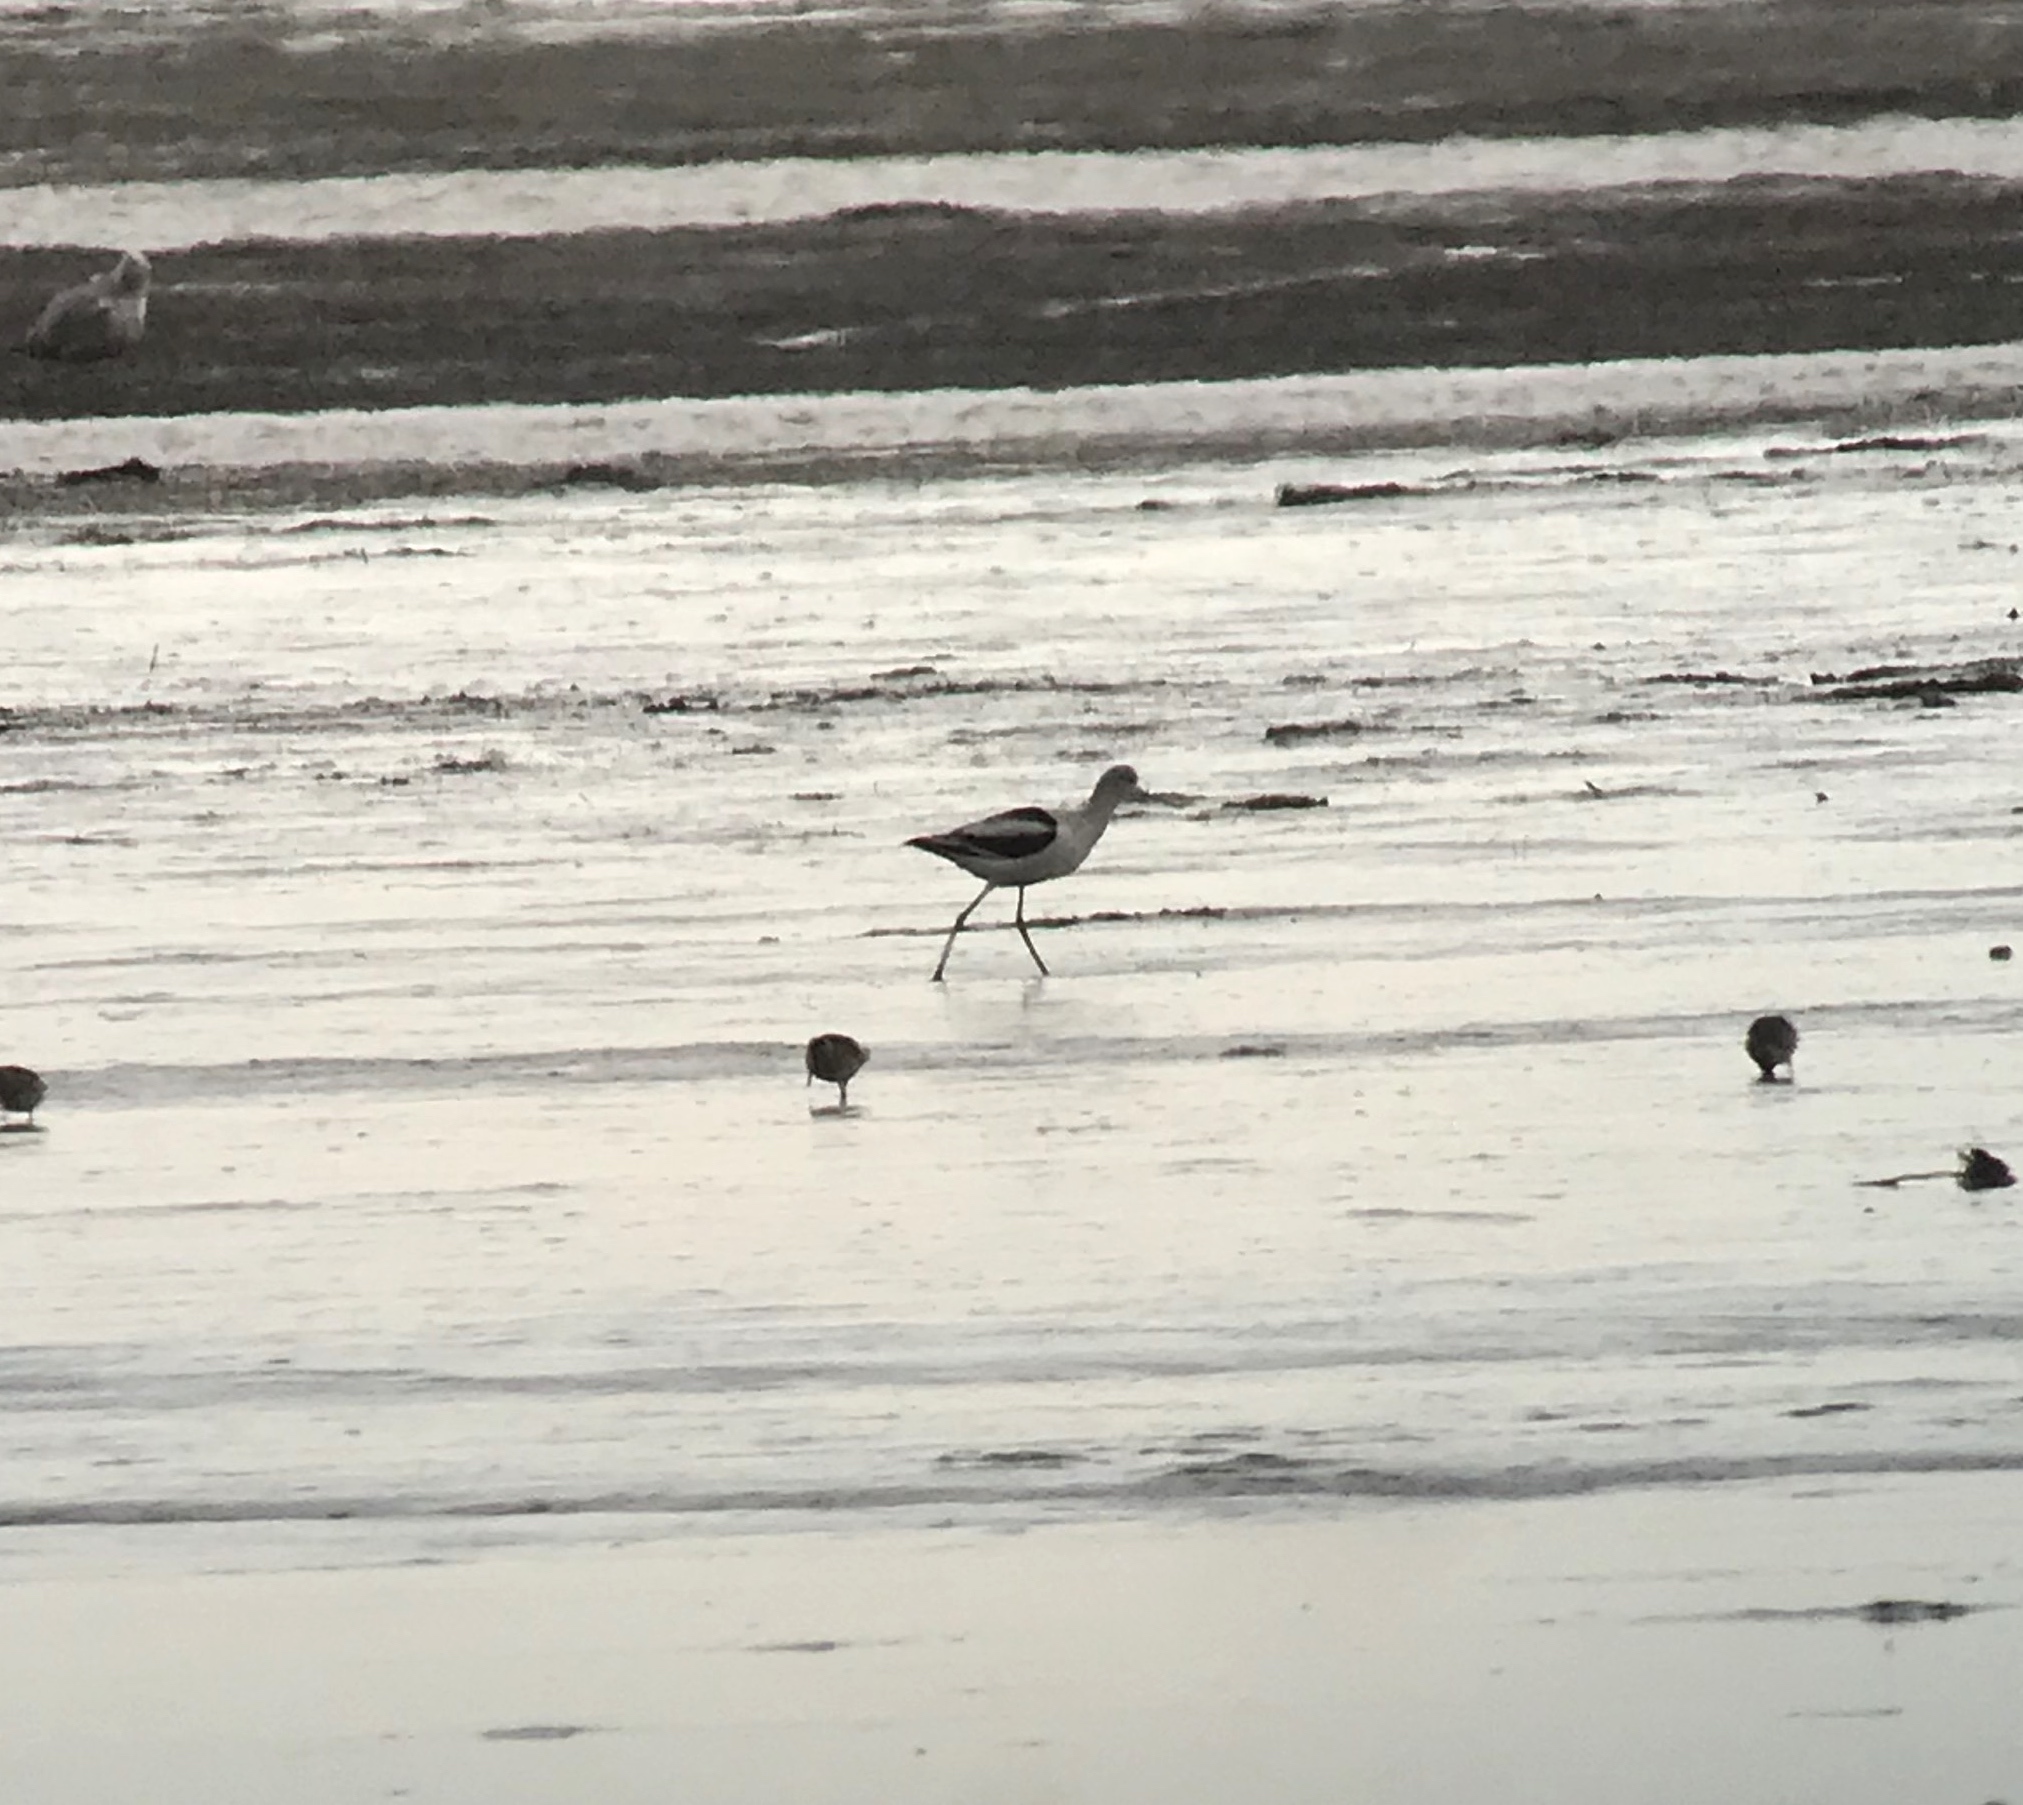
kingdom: Animalia
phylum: Chordata
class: Aves
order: Charadriiformes
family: Recurvirostridae
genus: Recurvirostra
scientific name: Recurvirostra americana
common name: American avocet
